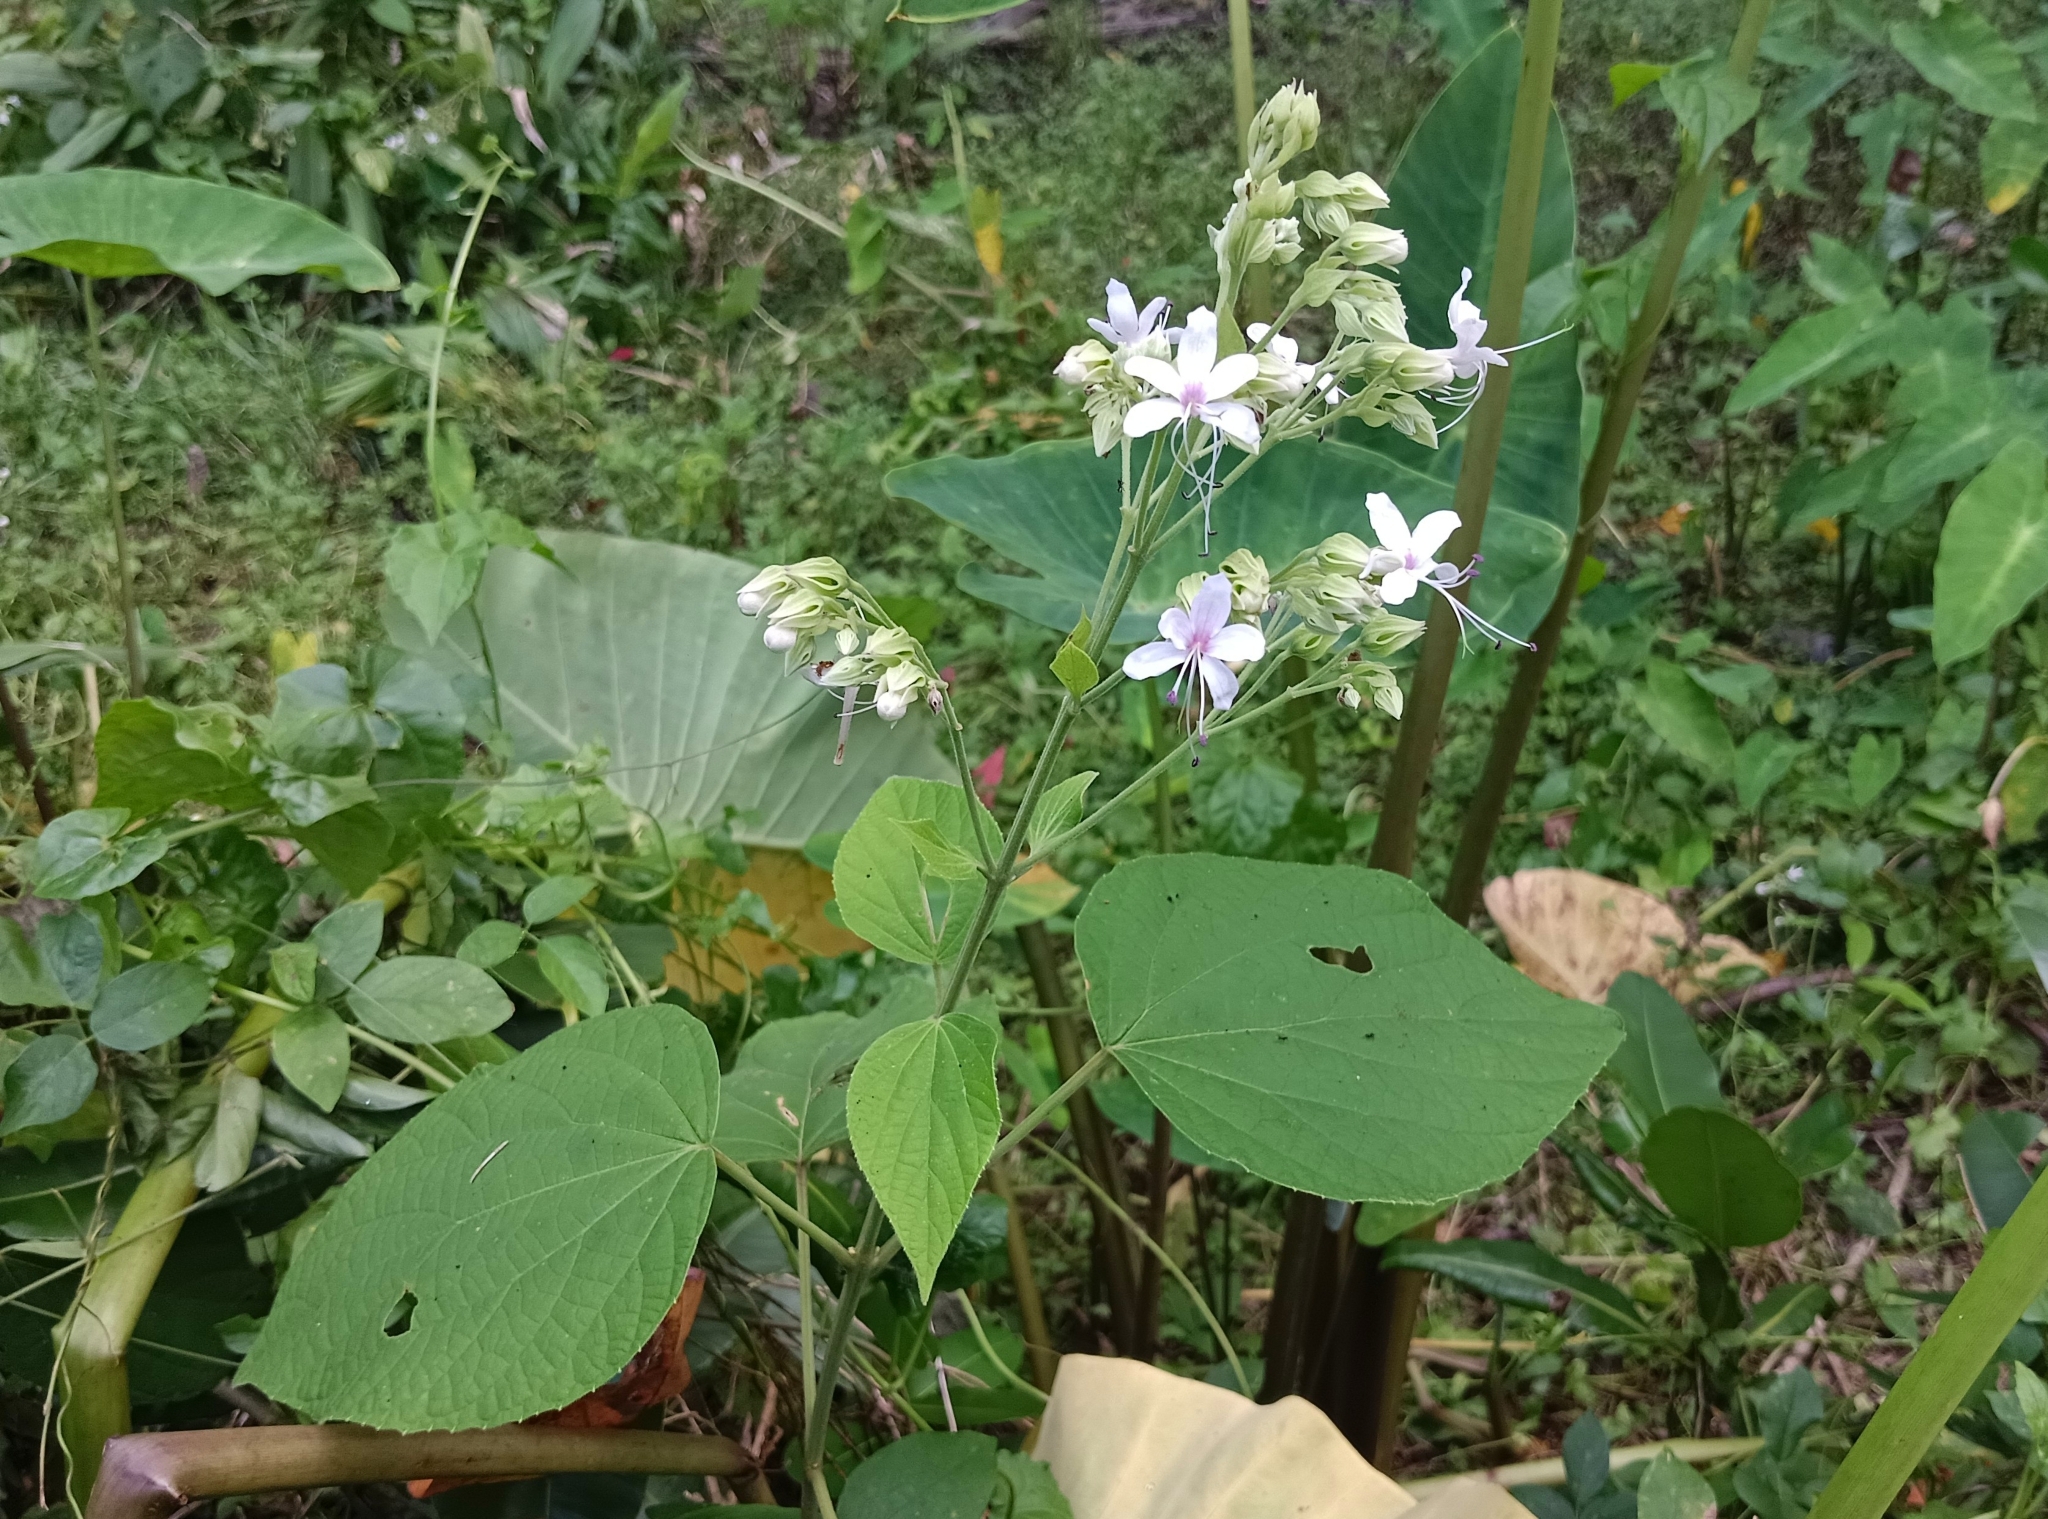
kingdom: Plantae
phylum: Tracheophyta
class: Magnoliopsida
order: Lamiales
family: Lamiaceae
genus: Clerodendrum
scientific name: Clerodendrum infortunatum
